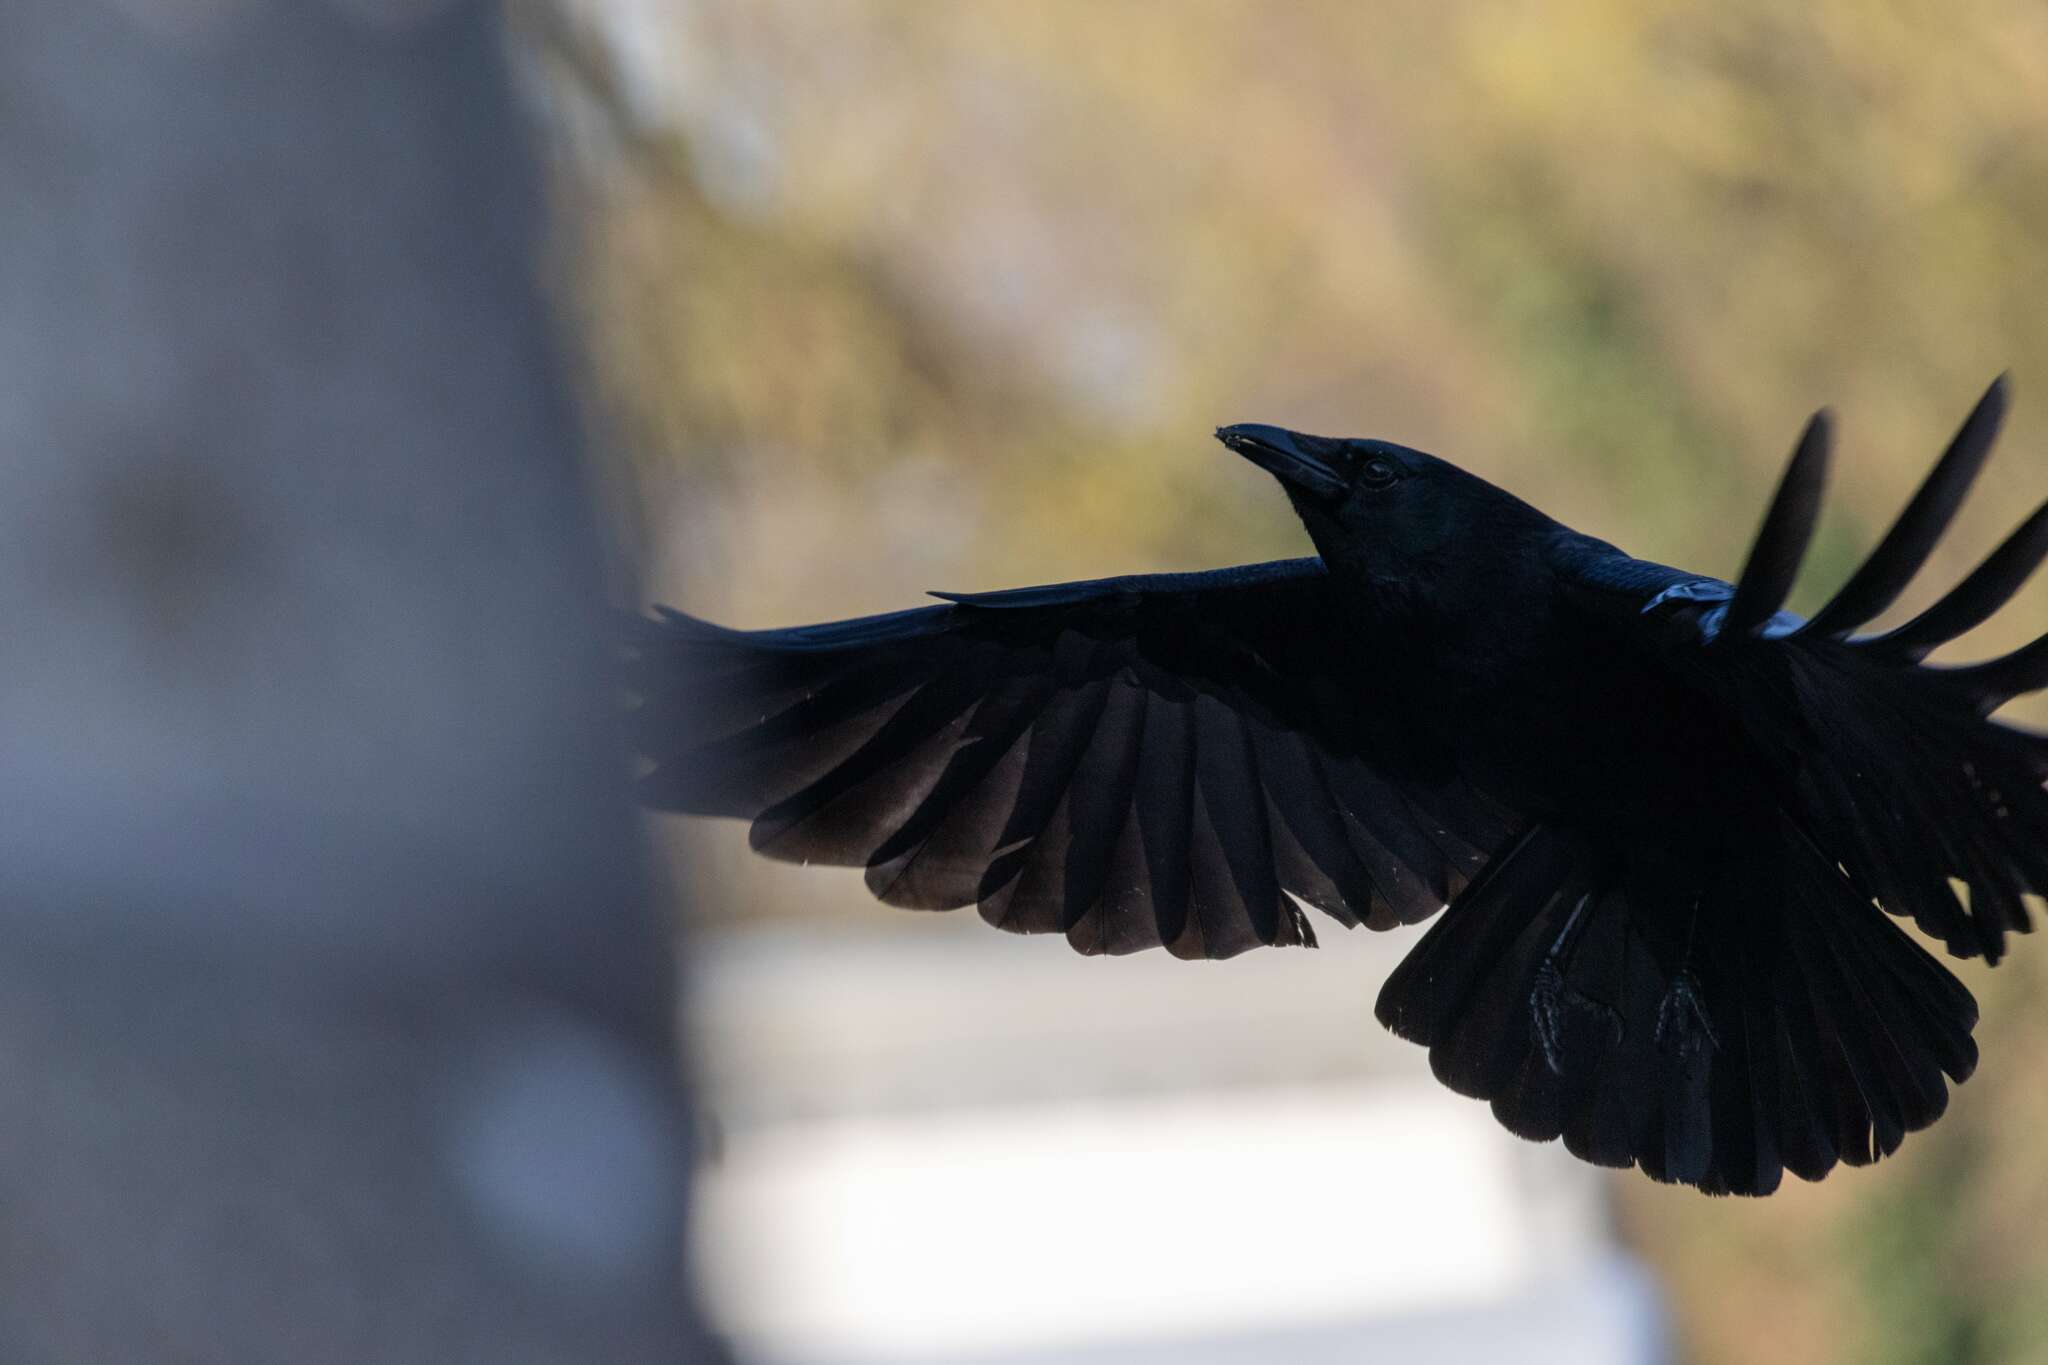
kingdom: Animalia
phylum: Chordata
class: Aves
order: Passeriformes
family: Corvidae
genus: Corvus
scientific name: Corvus corone
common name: Carrion crow
